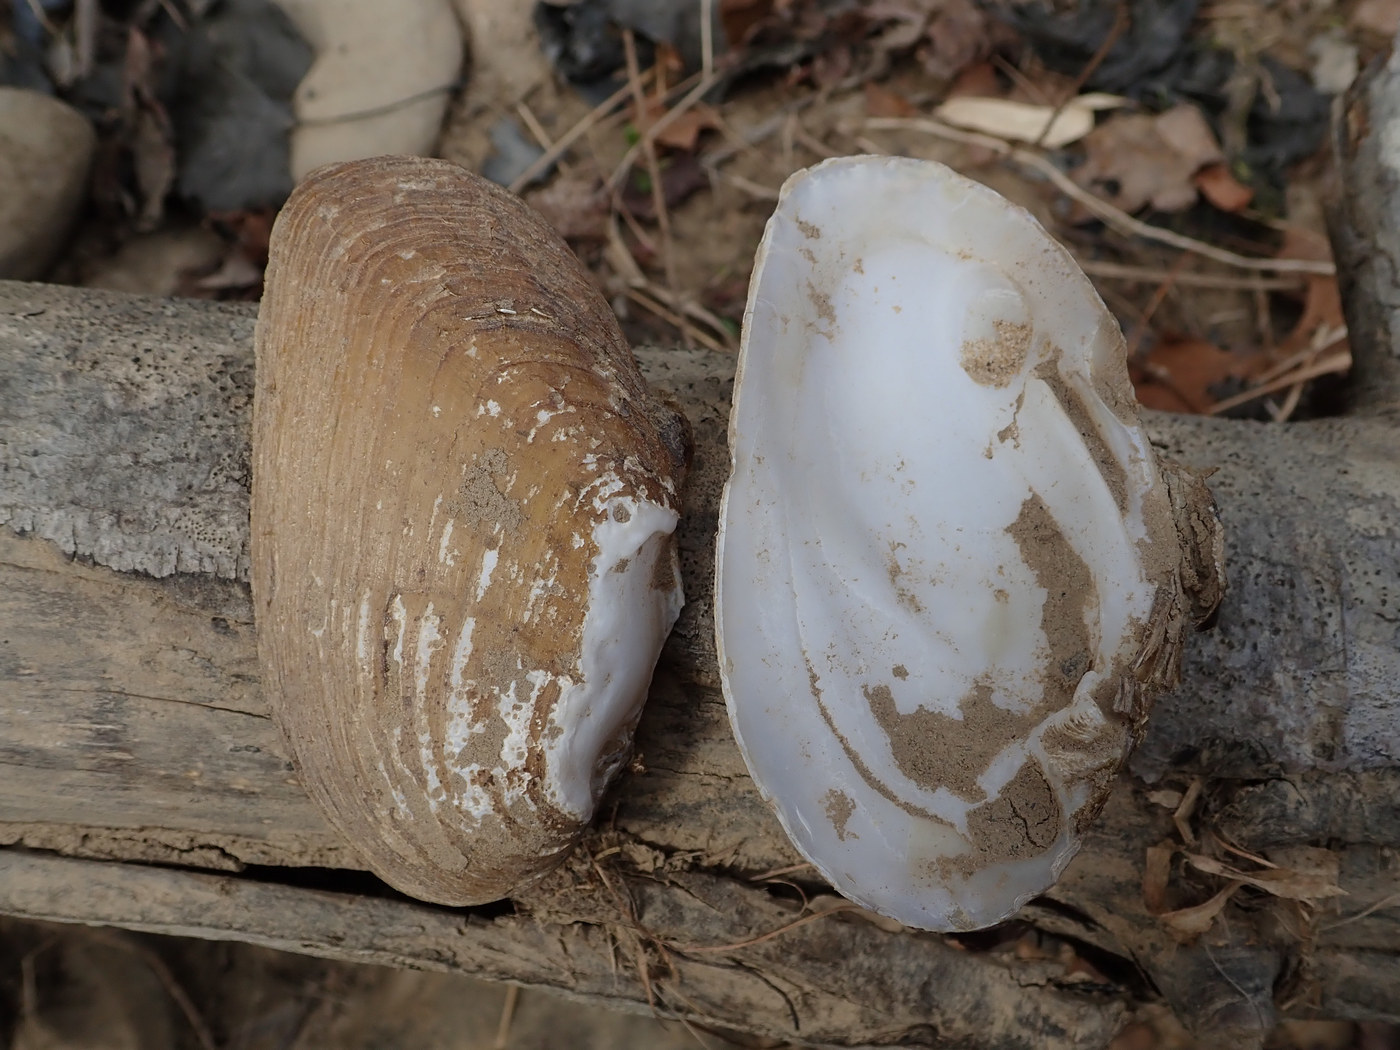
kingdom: Animalia
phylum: Mollusca
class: Bivalvia
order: Unionida
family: Unionidae
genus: Ptychobranchus
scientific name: Ptychobranchus fasciolaris
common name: Kidneyshell
